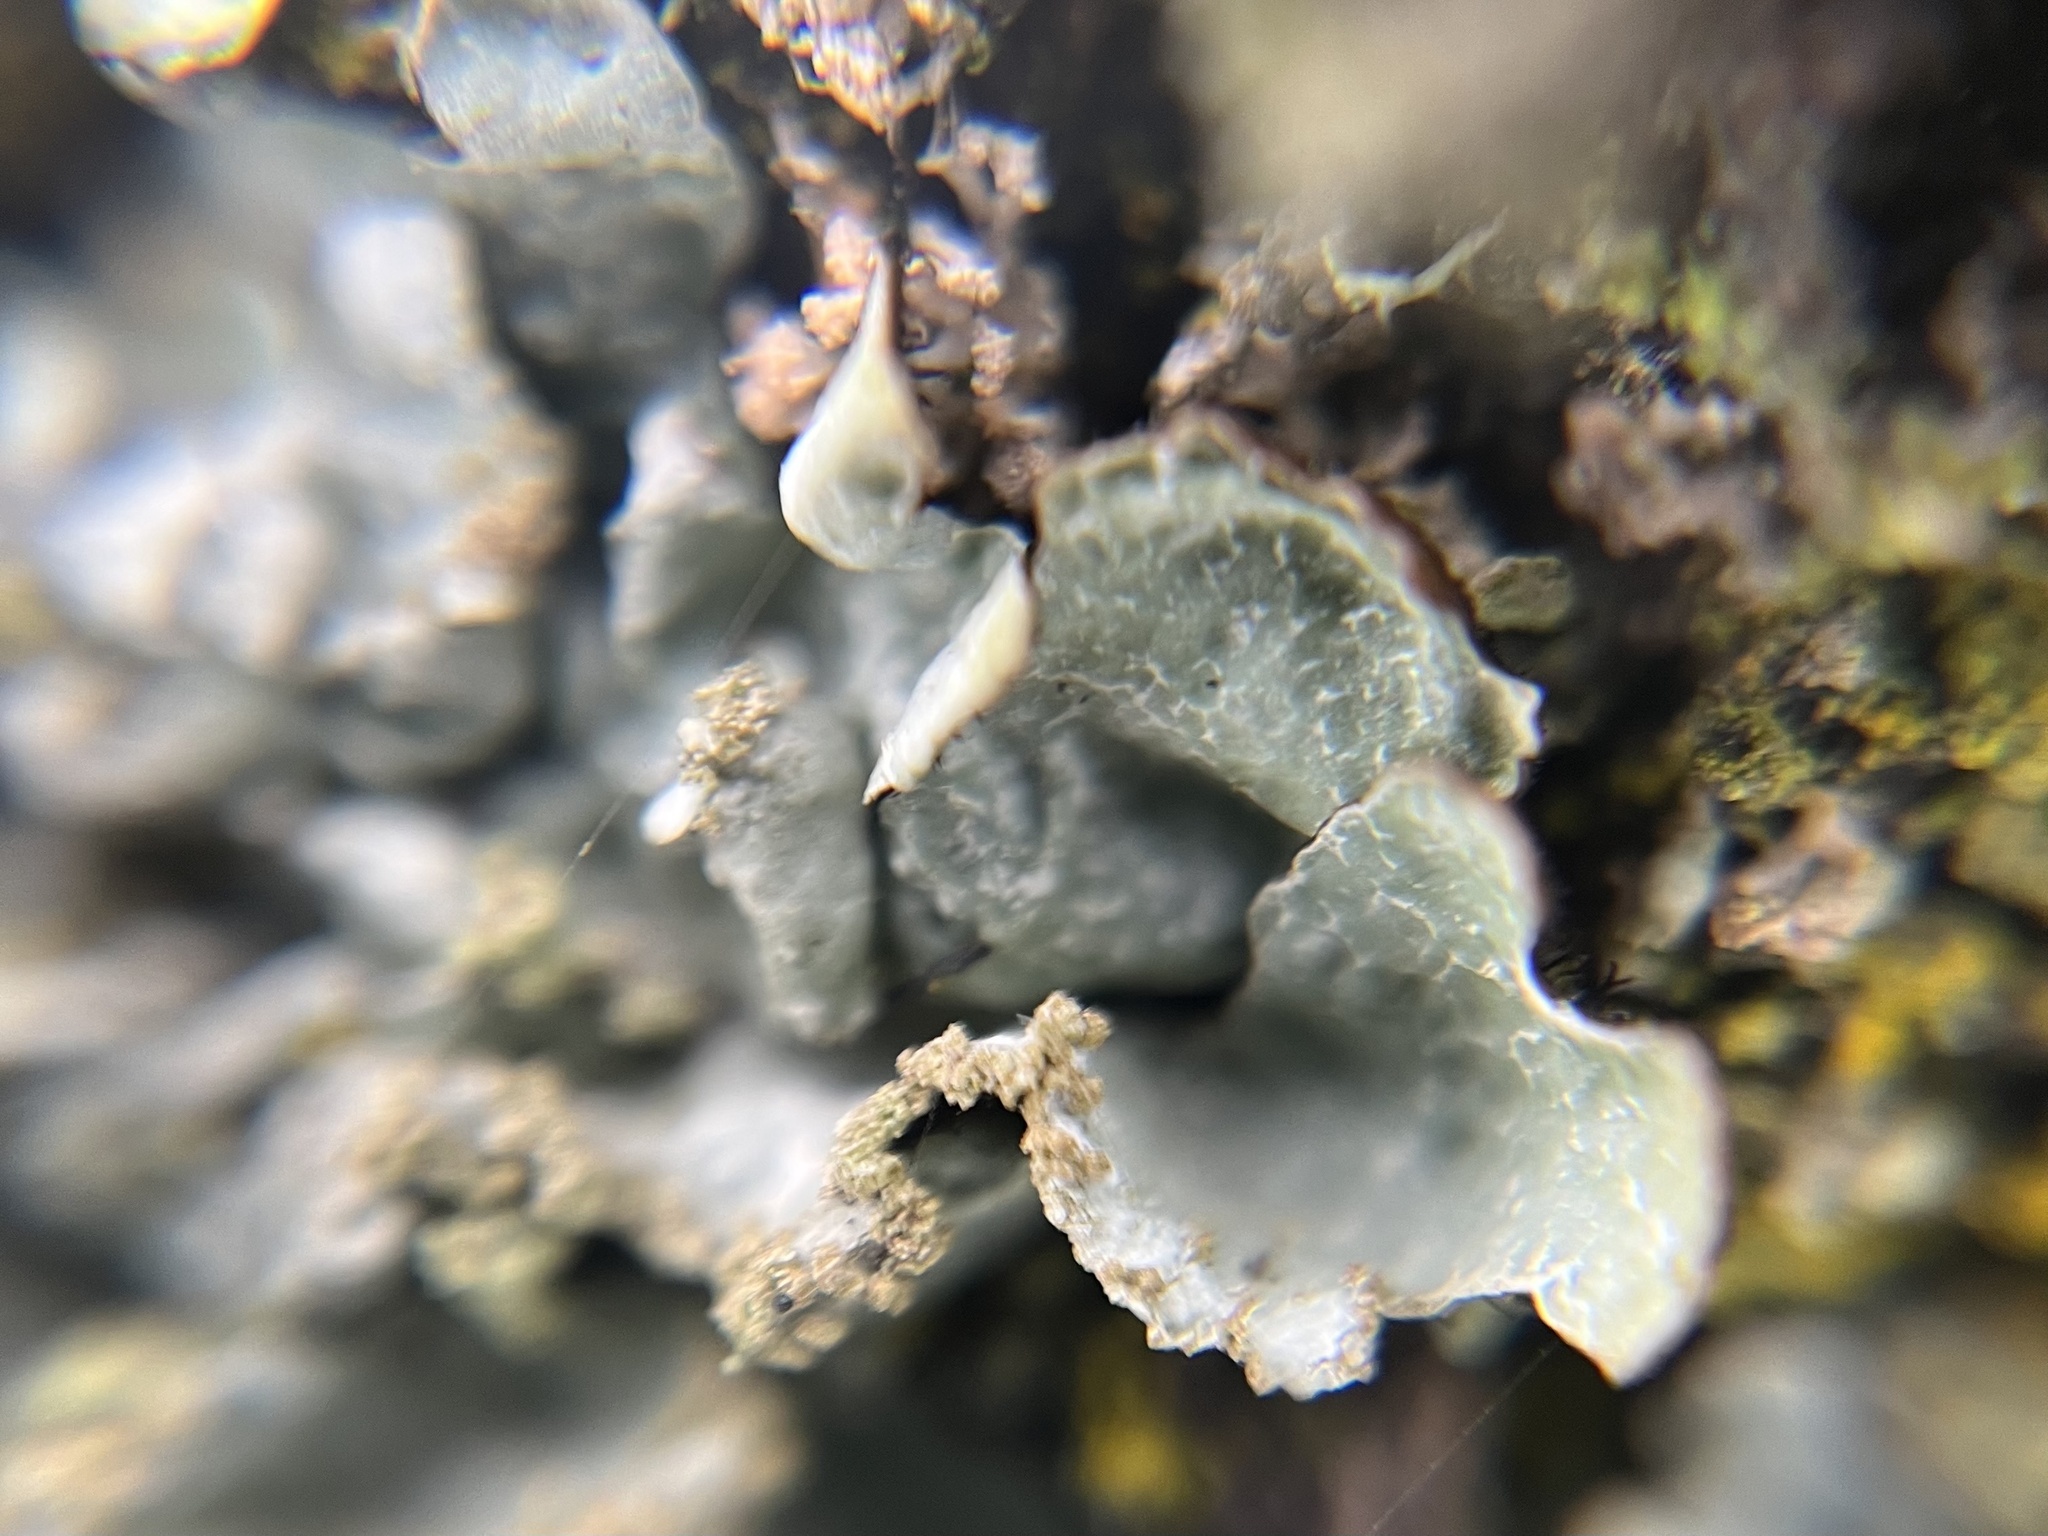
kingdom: Fungi
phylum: Ascomycota
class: Lecanoromycetes
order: Lecanorales
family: Parmeliaceae
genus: Parmelia
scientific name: Parmelia sulcata
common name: Netted shield lichen
